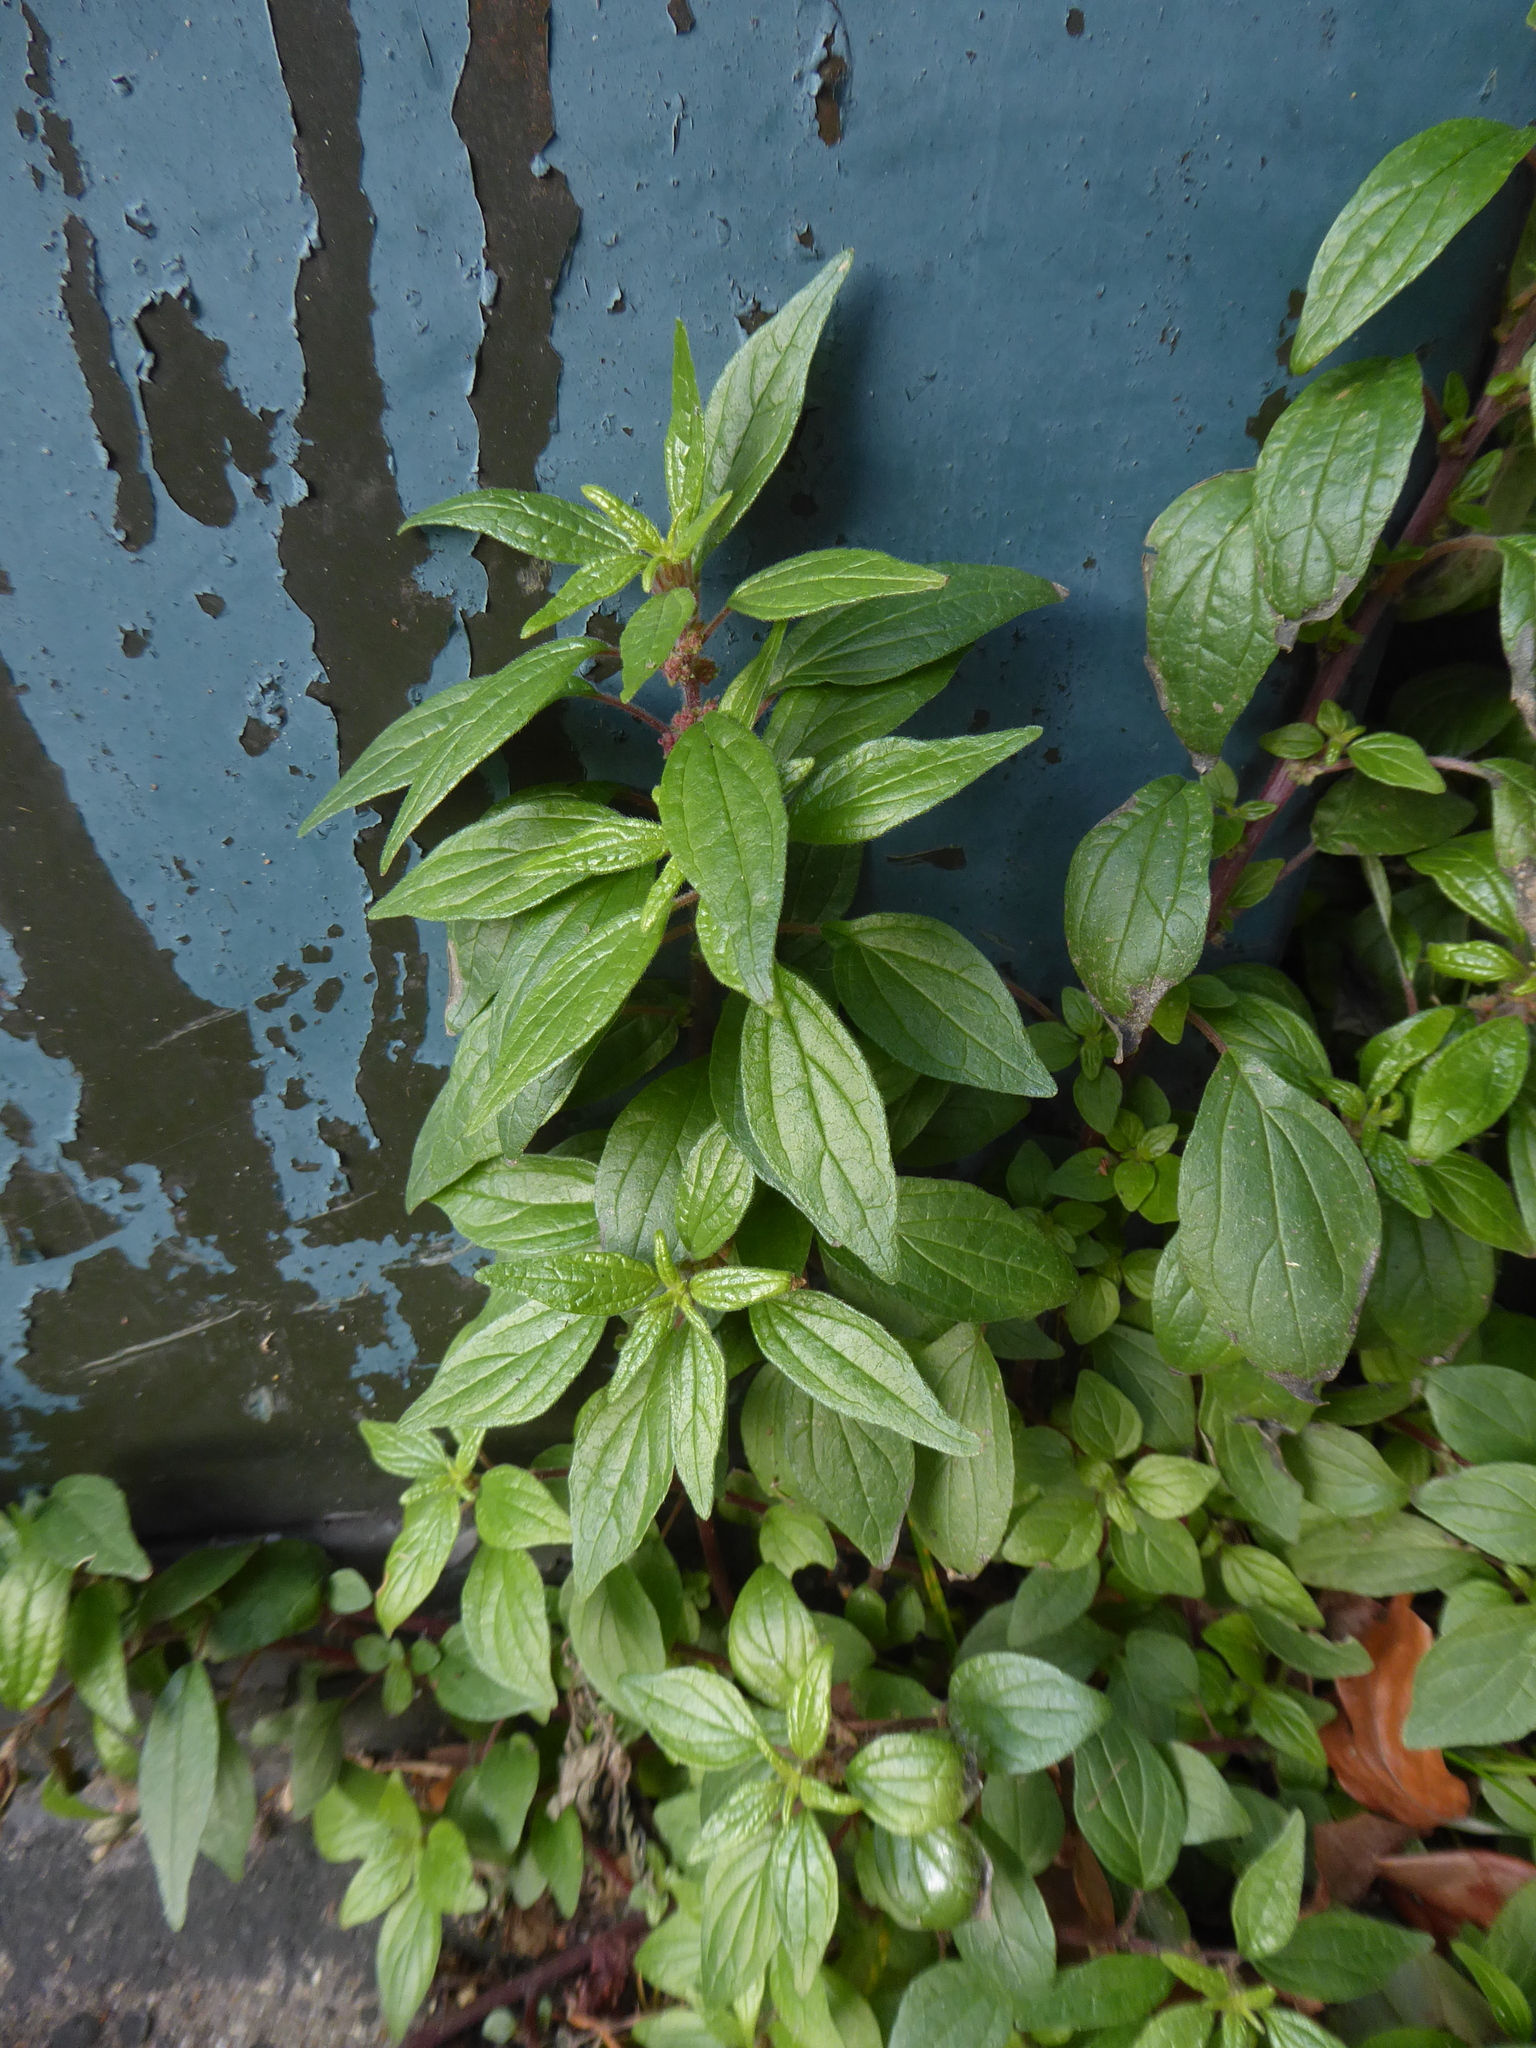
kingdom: Plantae
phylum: Tracheophyta
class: Magnoliopsida
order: Rosales
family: Urticaceae
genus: Parietaria
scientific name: Parietaria judaica
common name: Pellitory-of-the-wall
